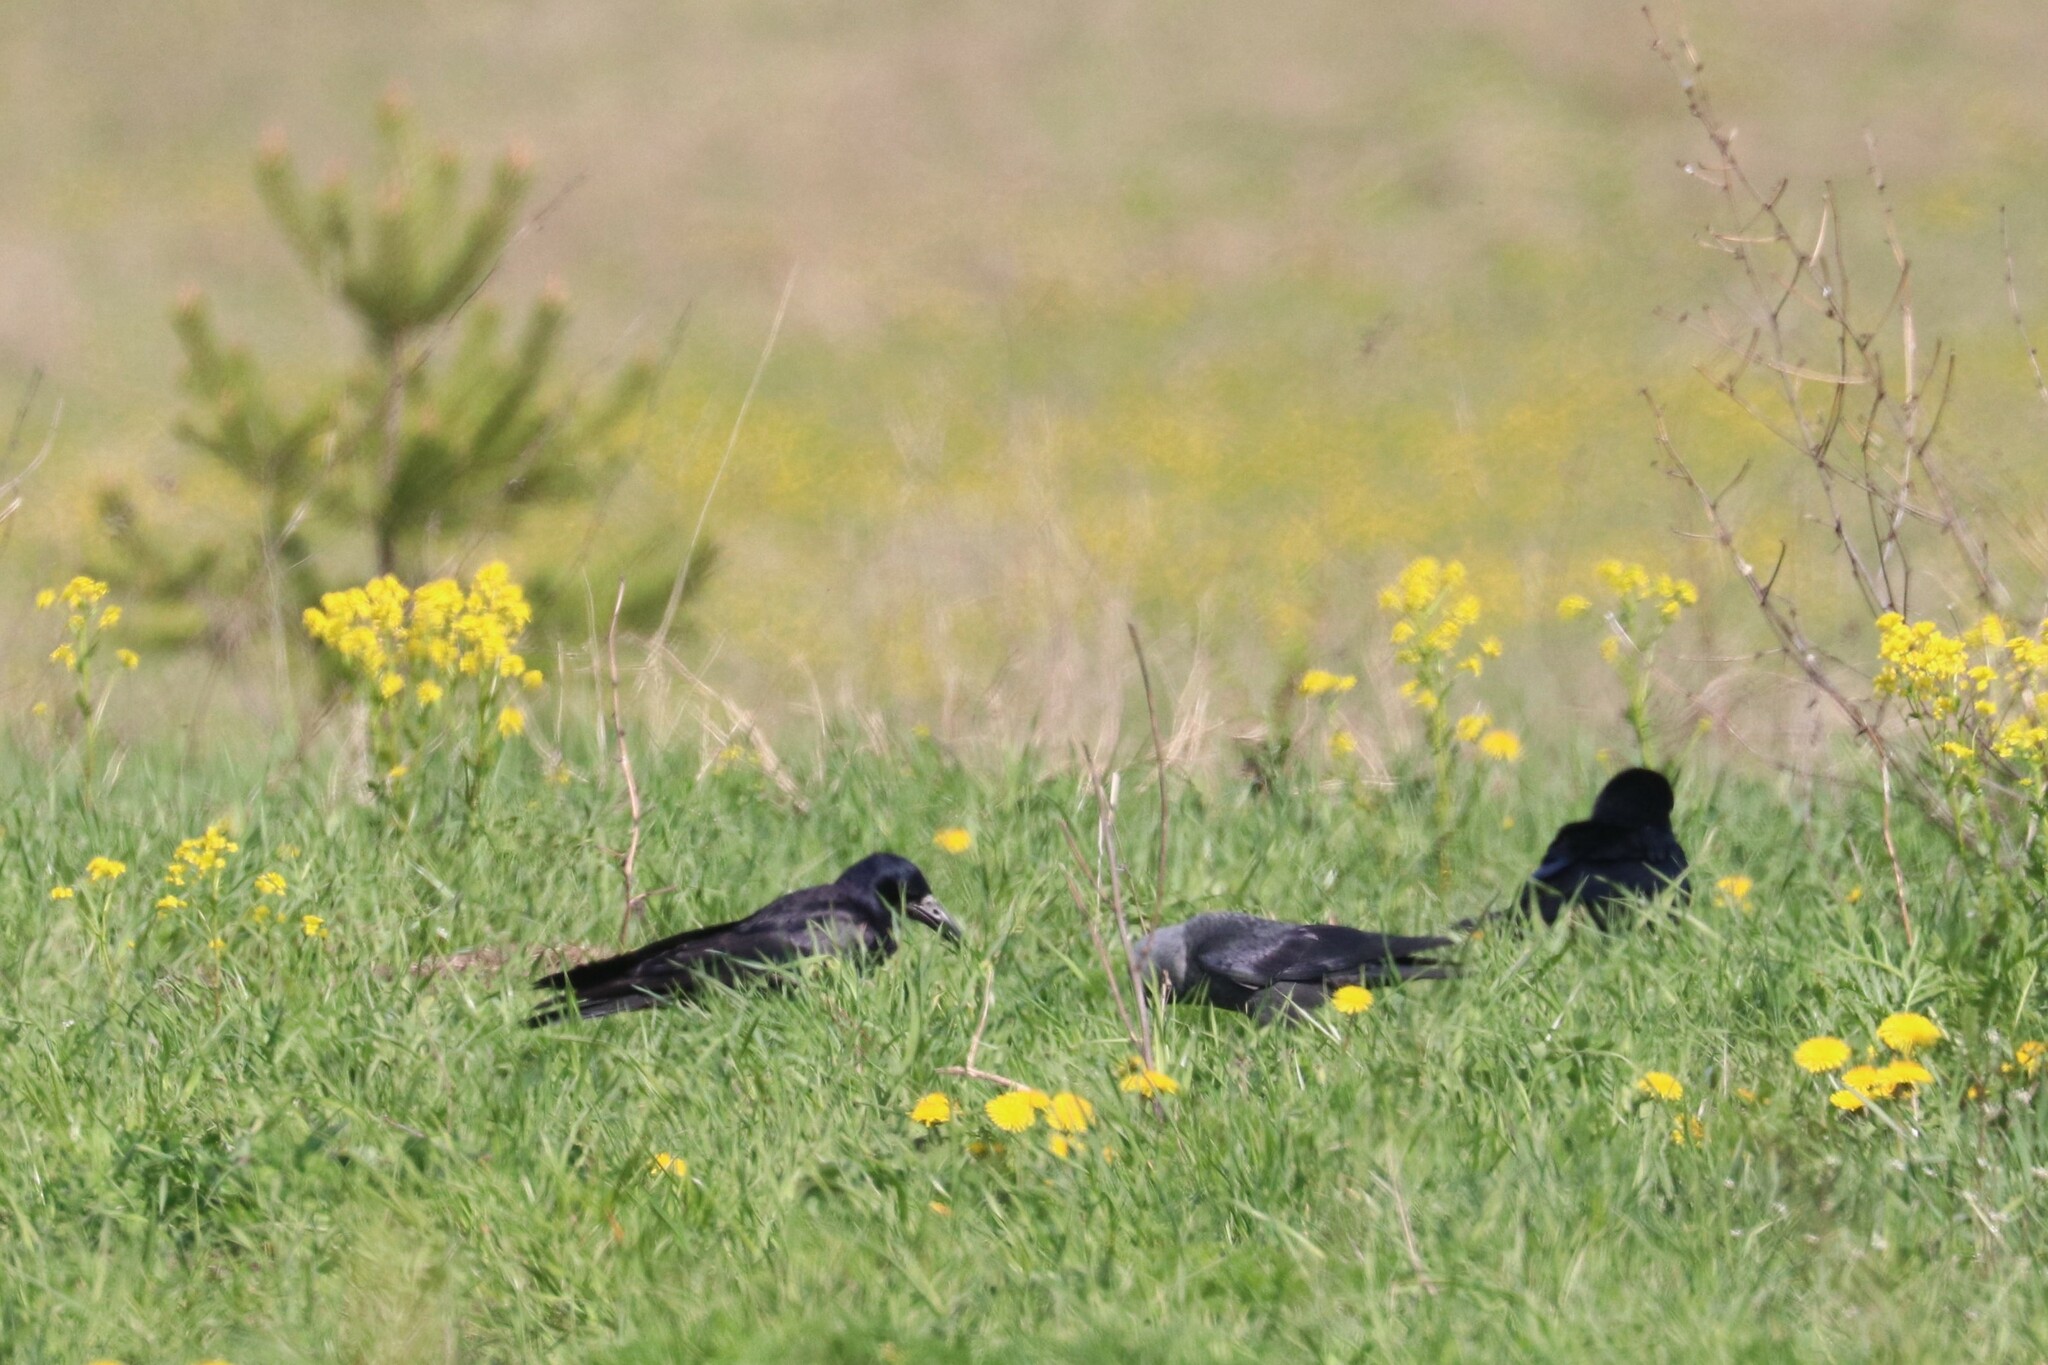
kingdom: Animalia
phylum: Chordata
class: Aves
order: Passeriformes
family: Corvidae
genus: Corvus
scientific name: Corvus frugilegus
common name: Rook
